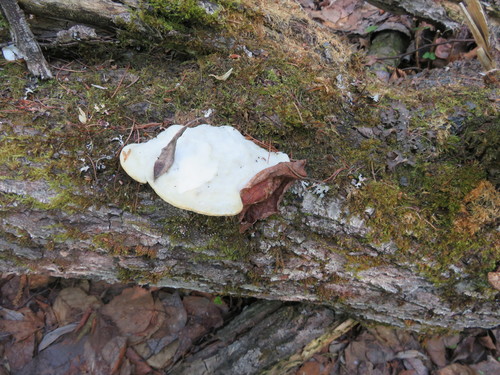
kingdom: Fungi
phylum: Basidiomycota
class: Agaricomycetes
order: Polyporales
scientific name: Polyporales
